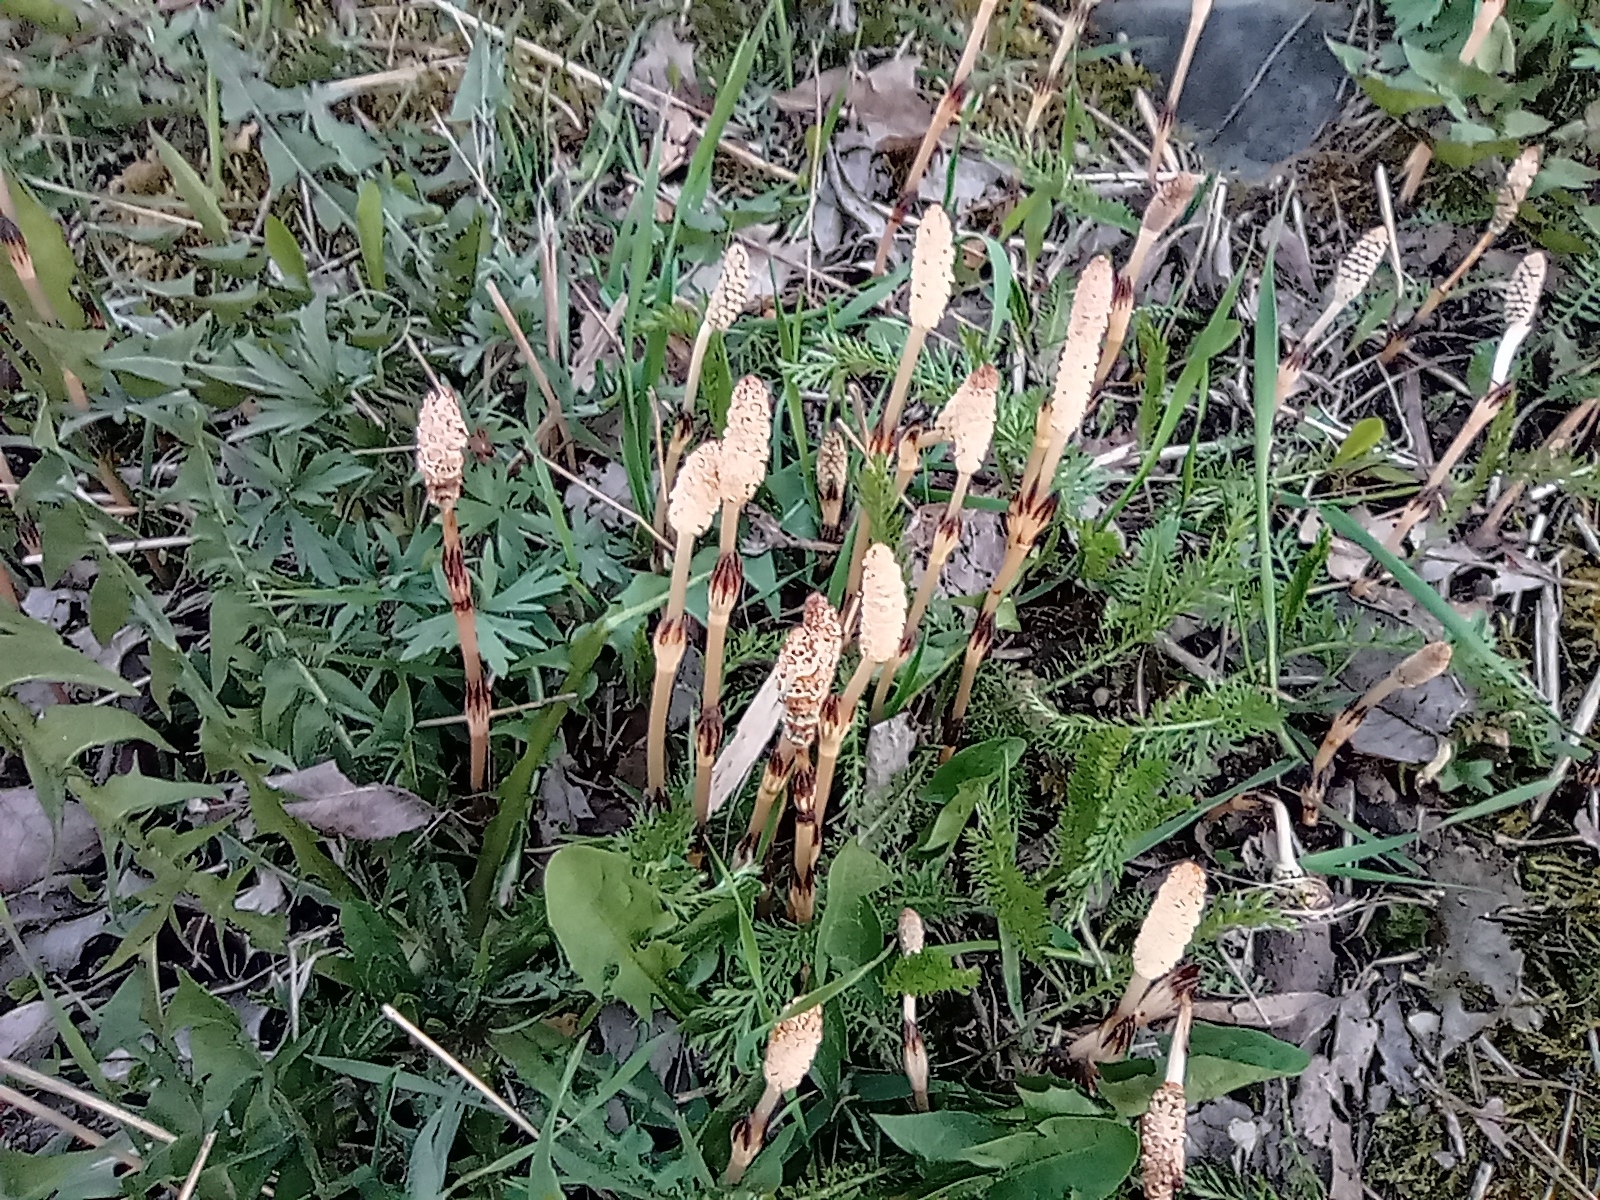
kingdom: Plantae
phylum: Tracheophyta
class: Polypodiopsida
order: Equisetales
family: Equisetaceae
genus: Equisetum
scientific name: Equisetum arvense
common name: Field horsetail
